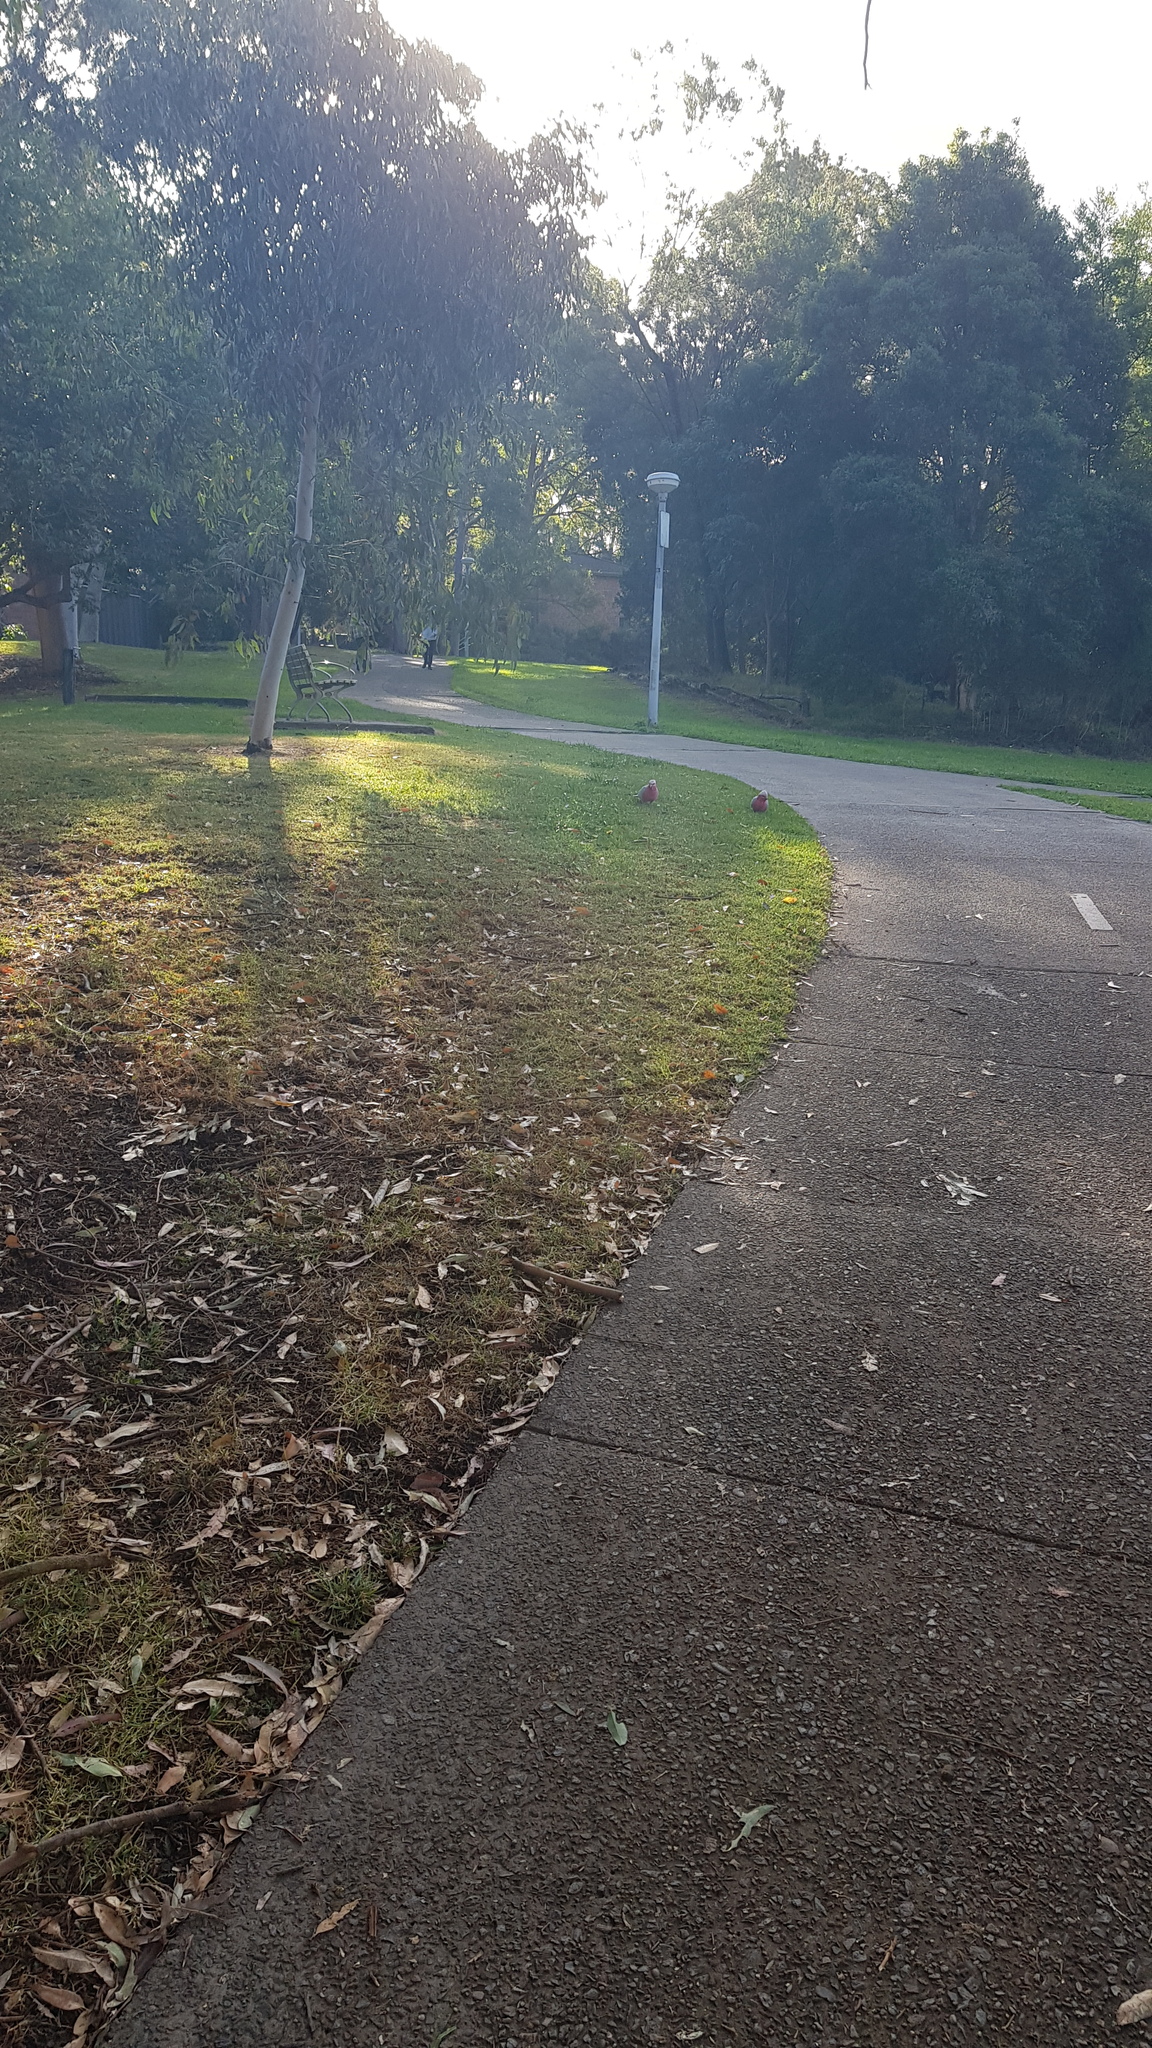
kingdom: Animalia
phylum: Chordata
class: Aves
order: Psittaciformes
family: Psittacidae
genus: Eolophus
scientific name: Eolophus roseicapilla
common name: Galah
